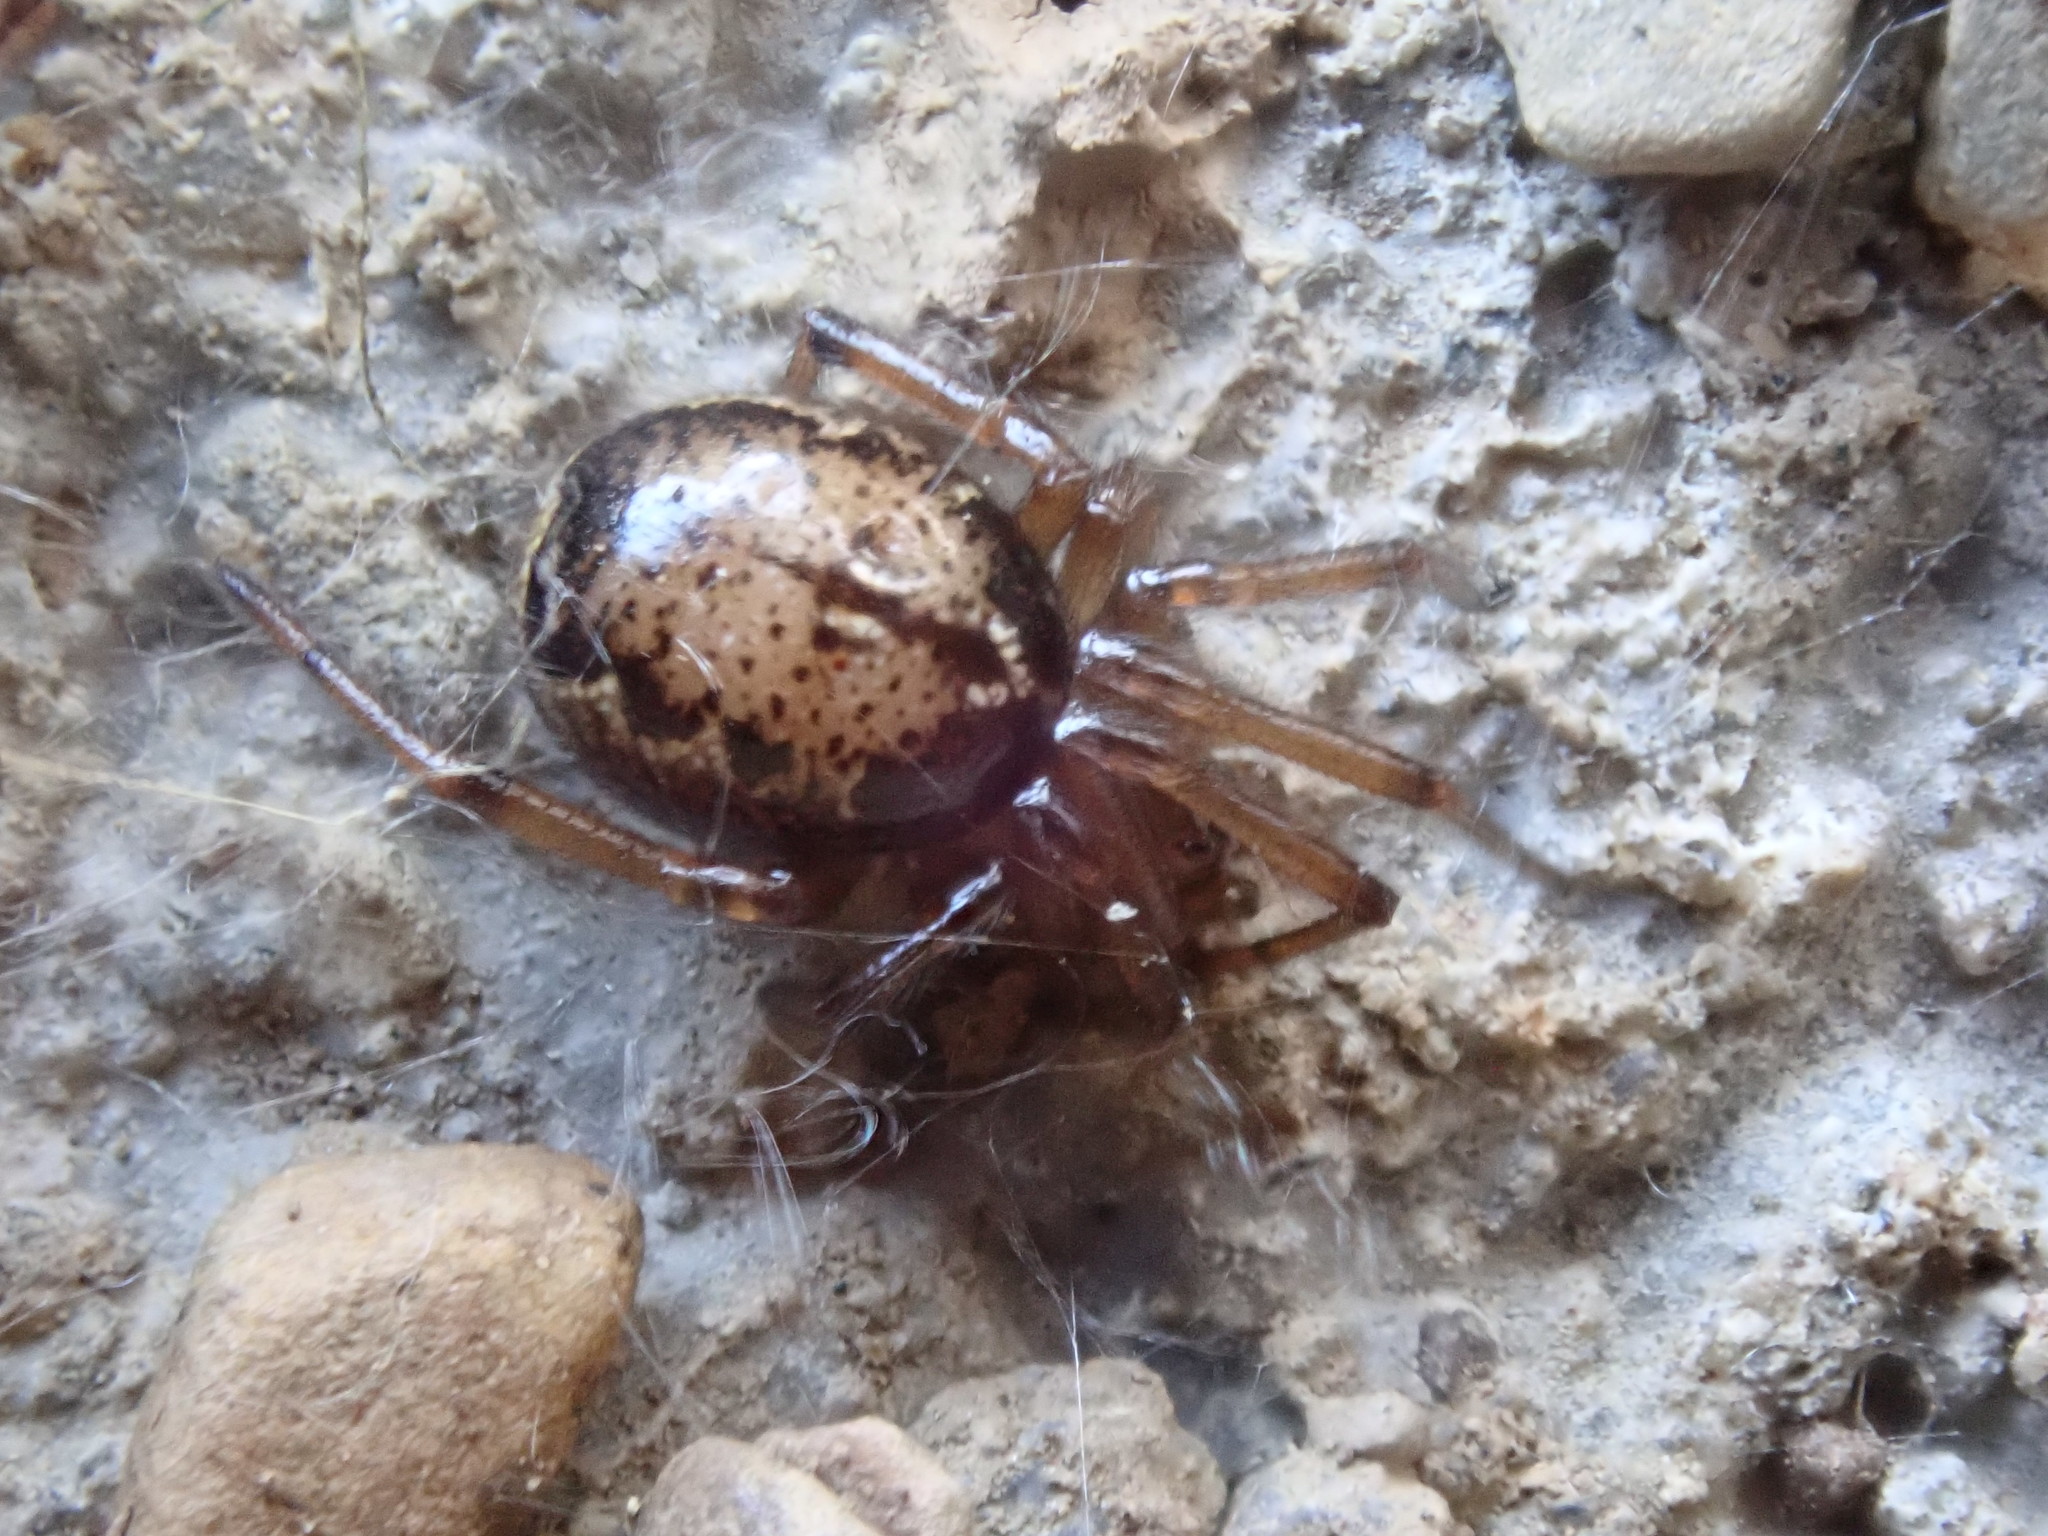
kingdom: Animalia
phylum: Arthropoda
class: Arachnida
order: Araneae
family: Theridiidae
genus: Enoplognatha
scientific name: Enoplognatha
